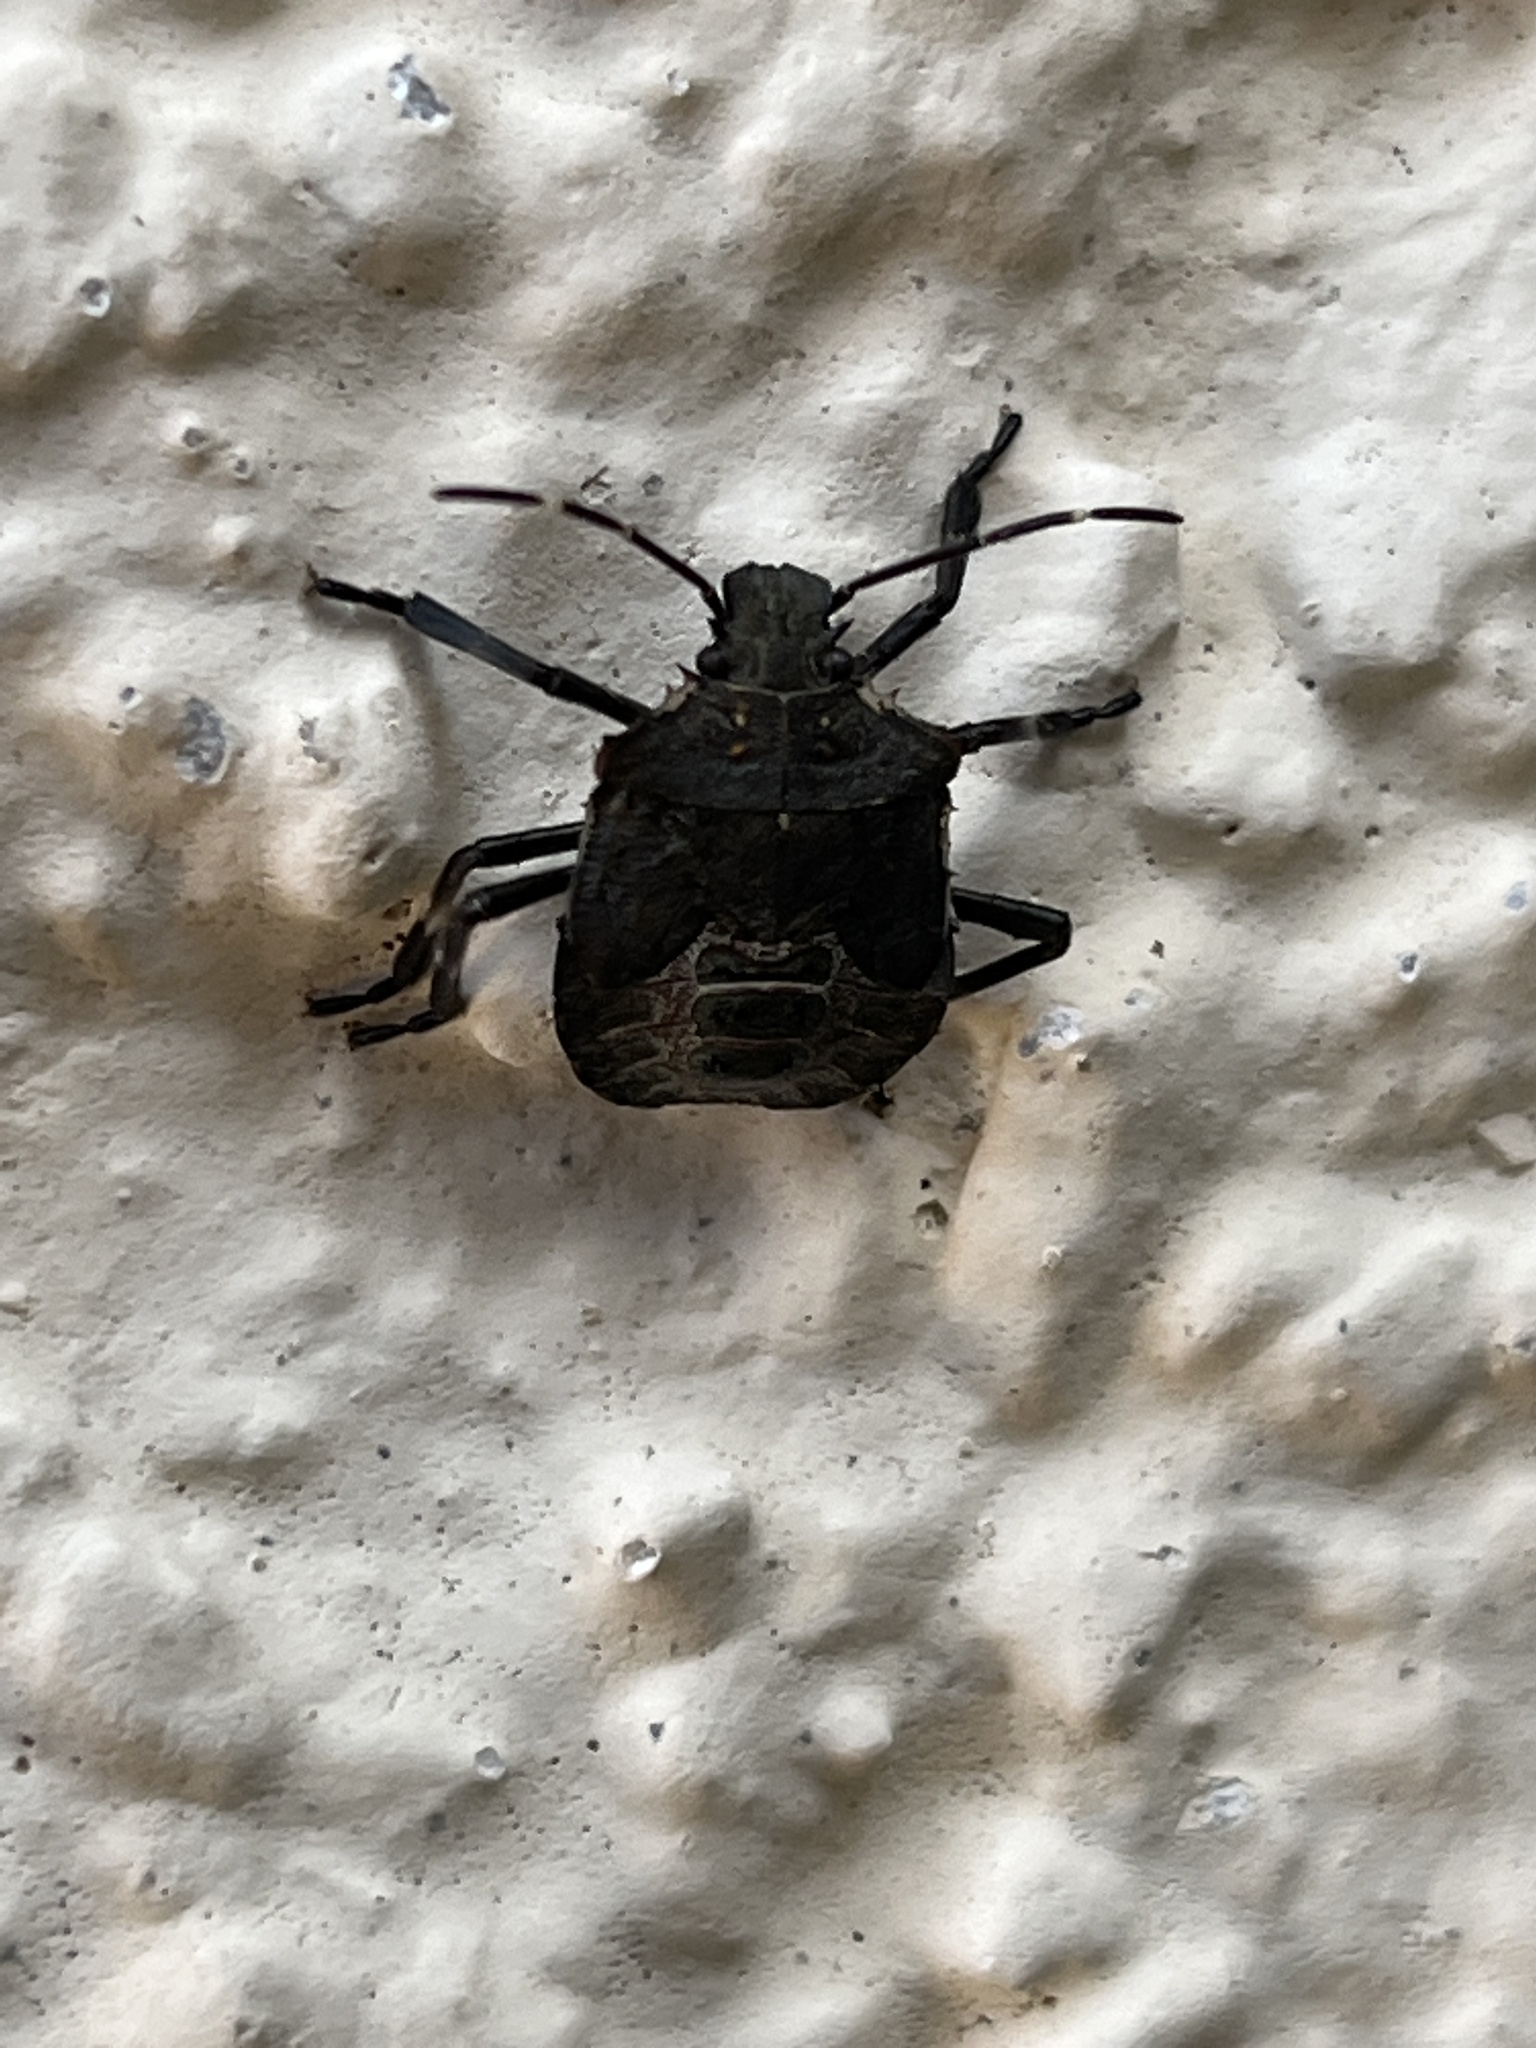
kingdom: Animalia
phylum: Arthropoda
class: Insecta
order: Hemiptera
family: Pentatomidae
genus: Halyomorpha
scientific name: Halyomorpha halys
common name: Brown marmorated stink bug
